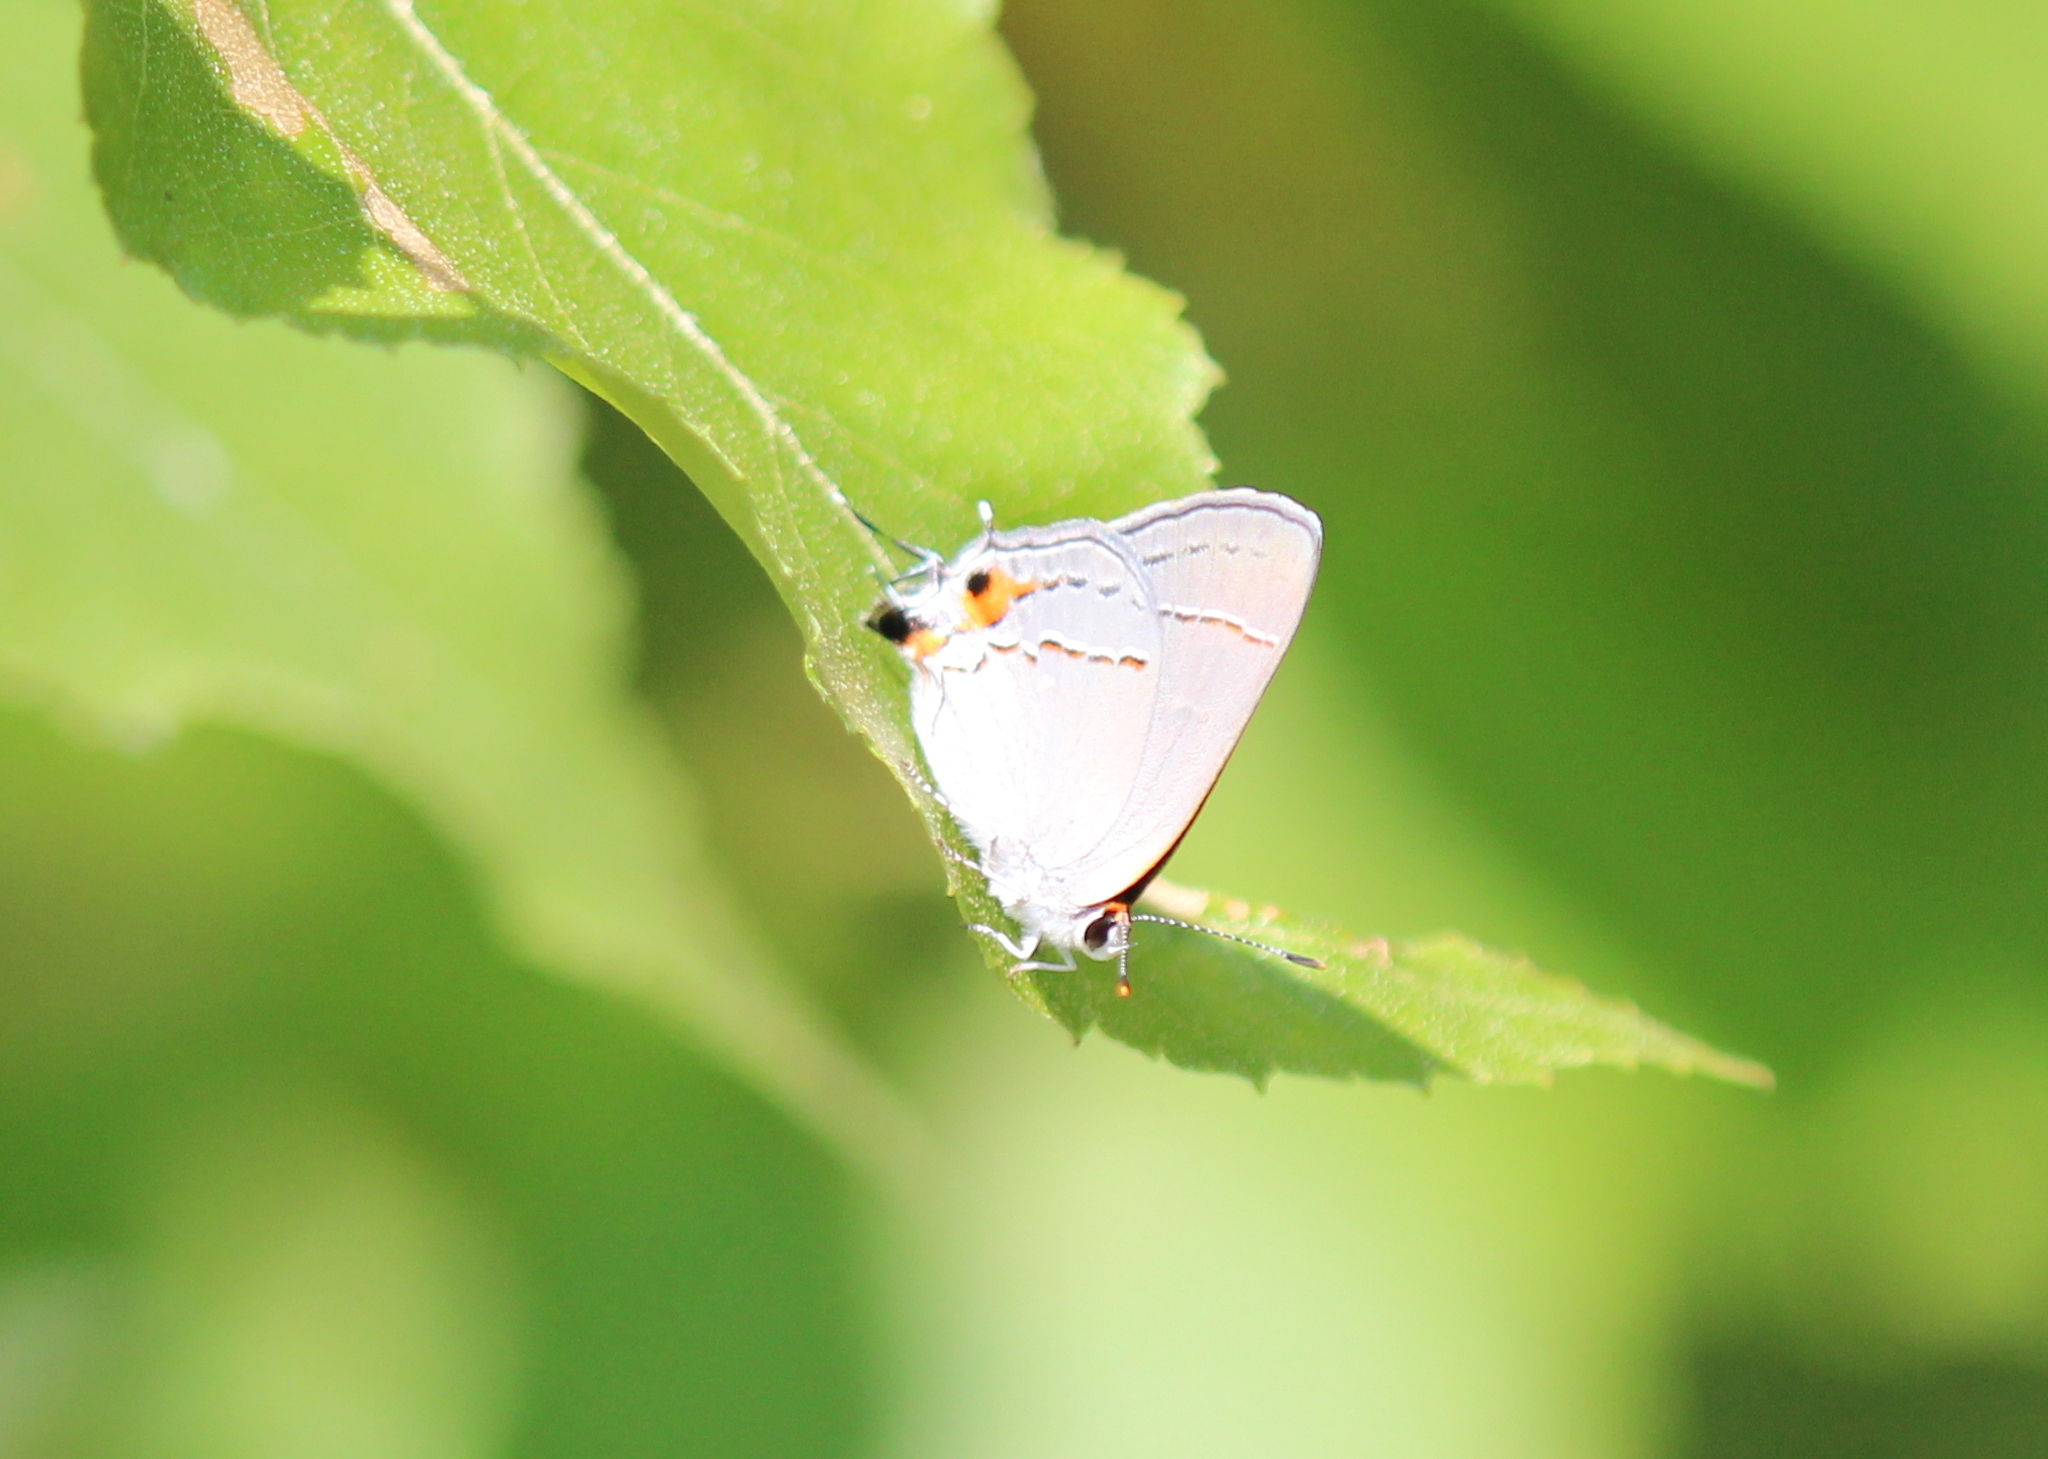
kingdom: Animalia
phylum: Arthropoda
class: Insecta
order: Lepidoptera
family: Lycaenidae
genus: Strymon
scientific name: Strymon melinus
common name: Gray hairstreak
